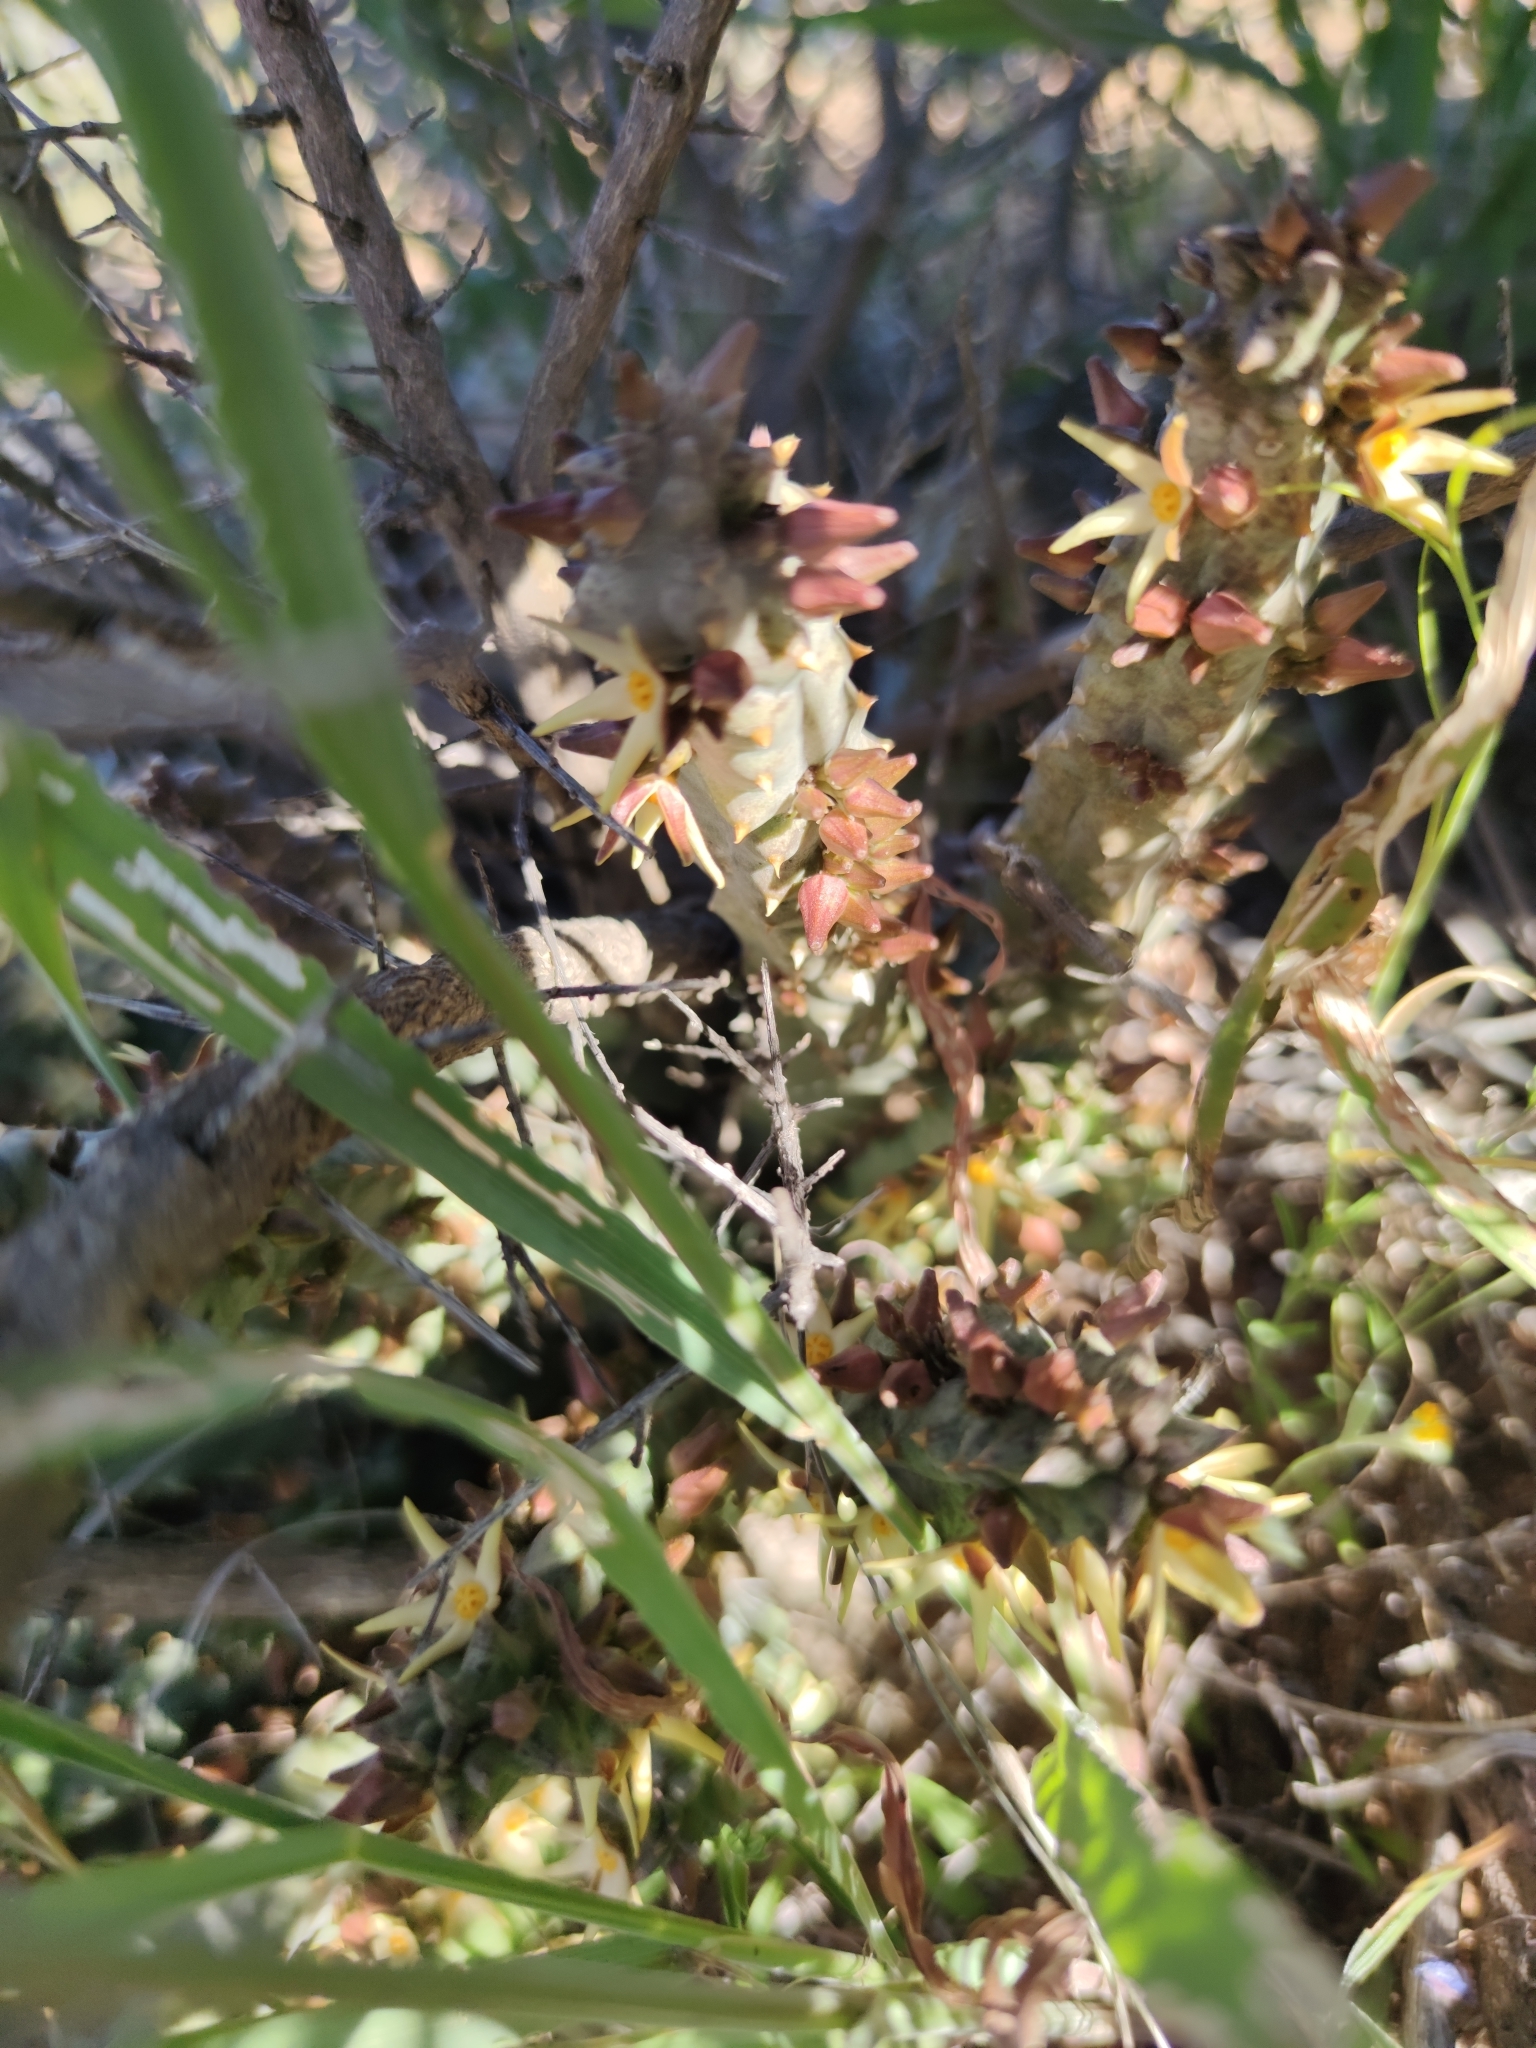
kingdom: Plantae
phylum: Tracheophyta
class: Magnoliopsida
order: Gentianales
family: Apocynaceae
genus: Ceropegia
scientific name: Ceropegia aurea
